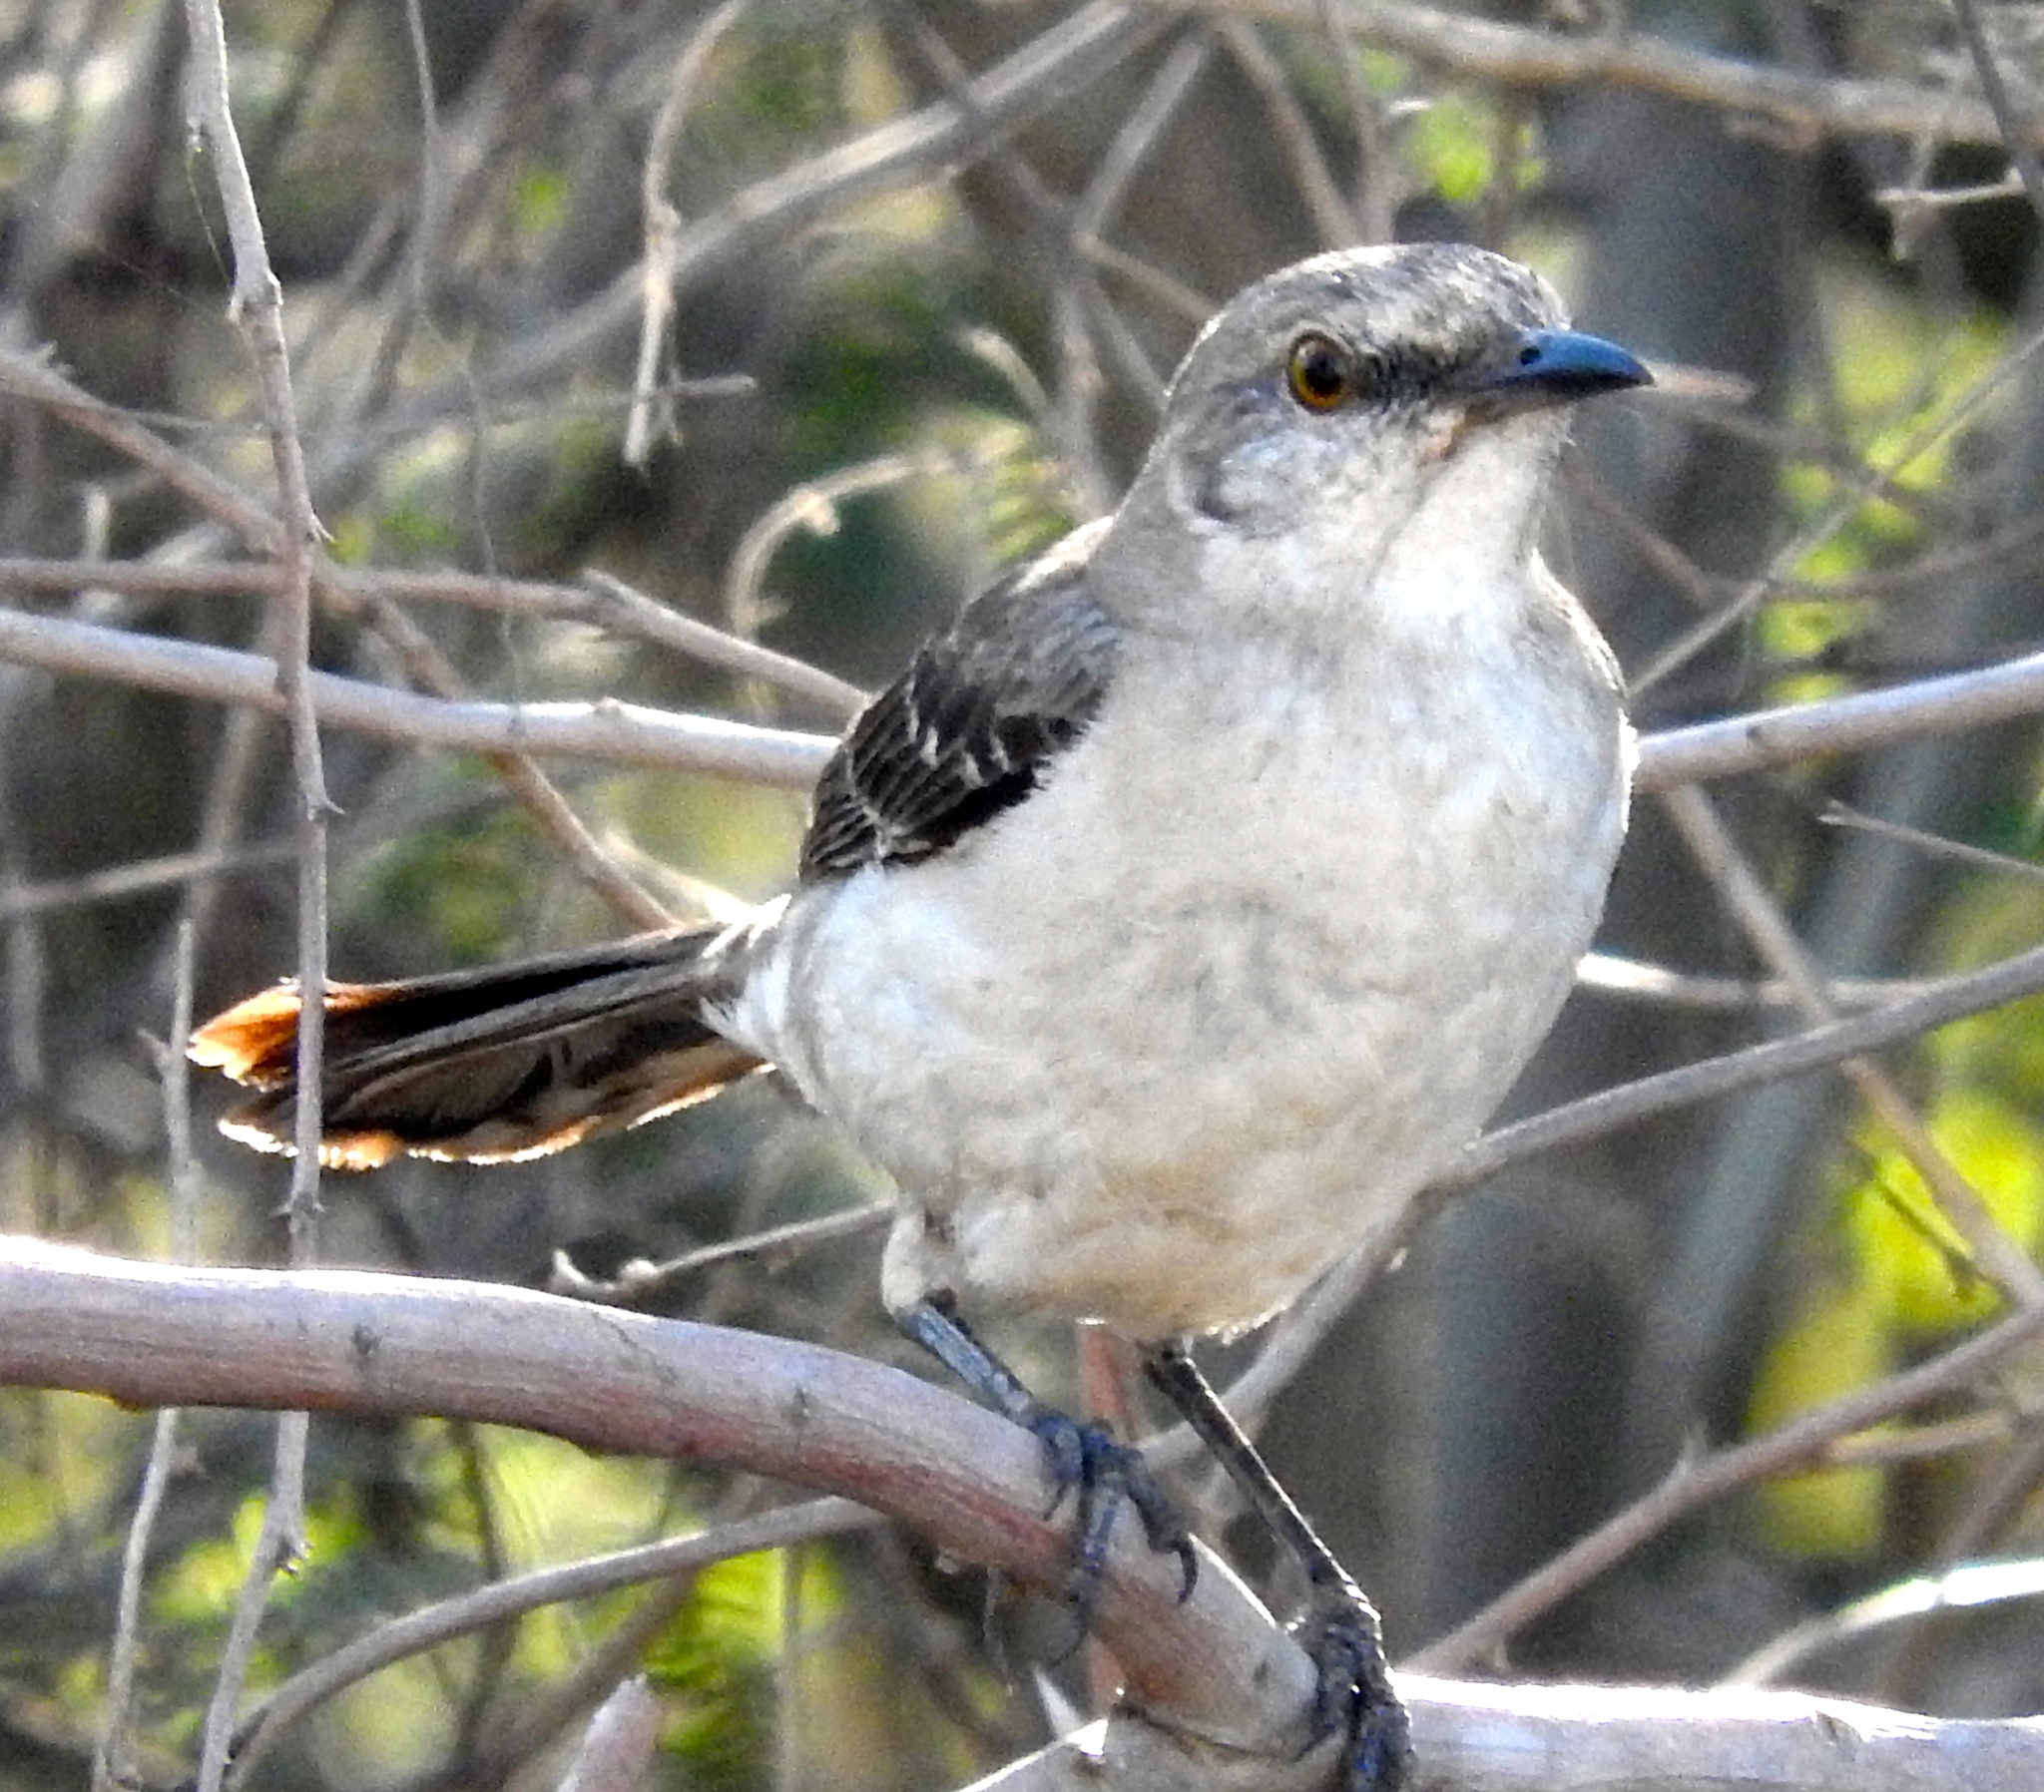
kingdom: Animalia
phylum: Chordata
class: Aves
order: Passeriformes
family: Mimidae
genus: Mimus
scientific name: Mimus polyglottos
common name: Northern mockingbird
